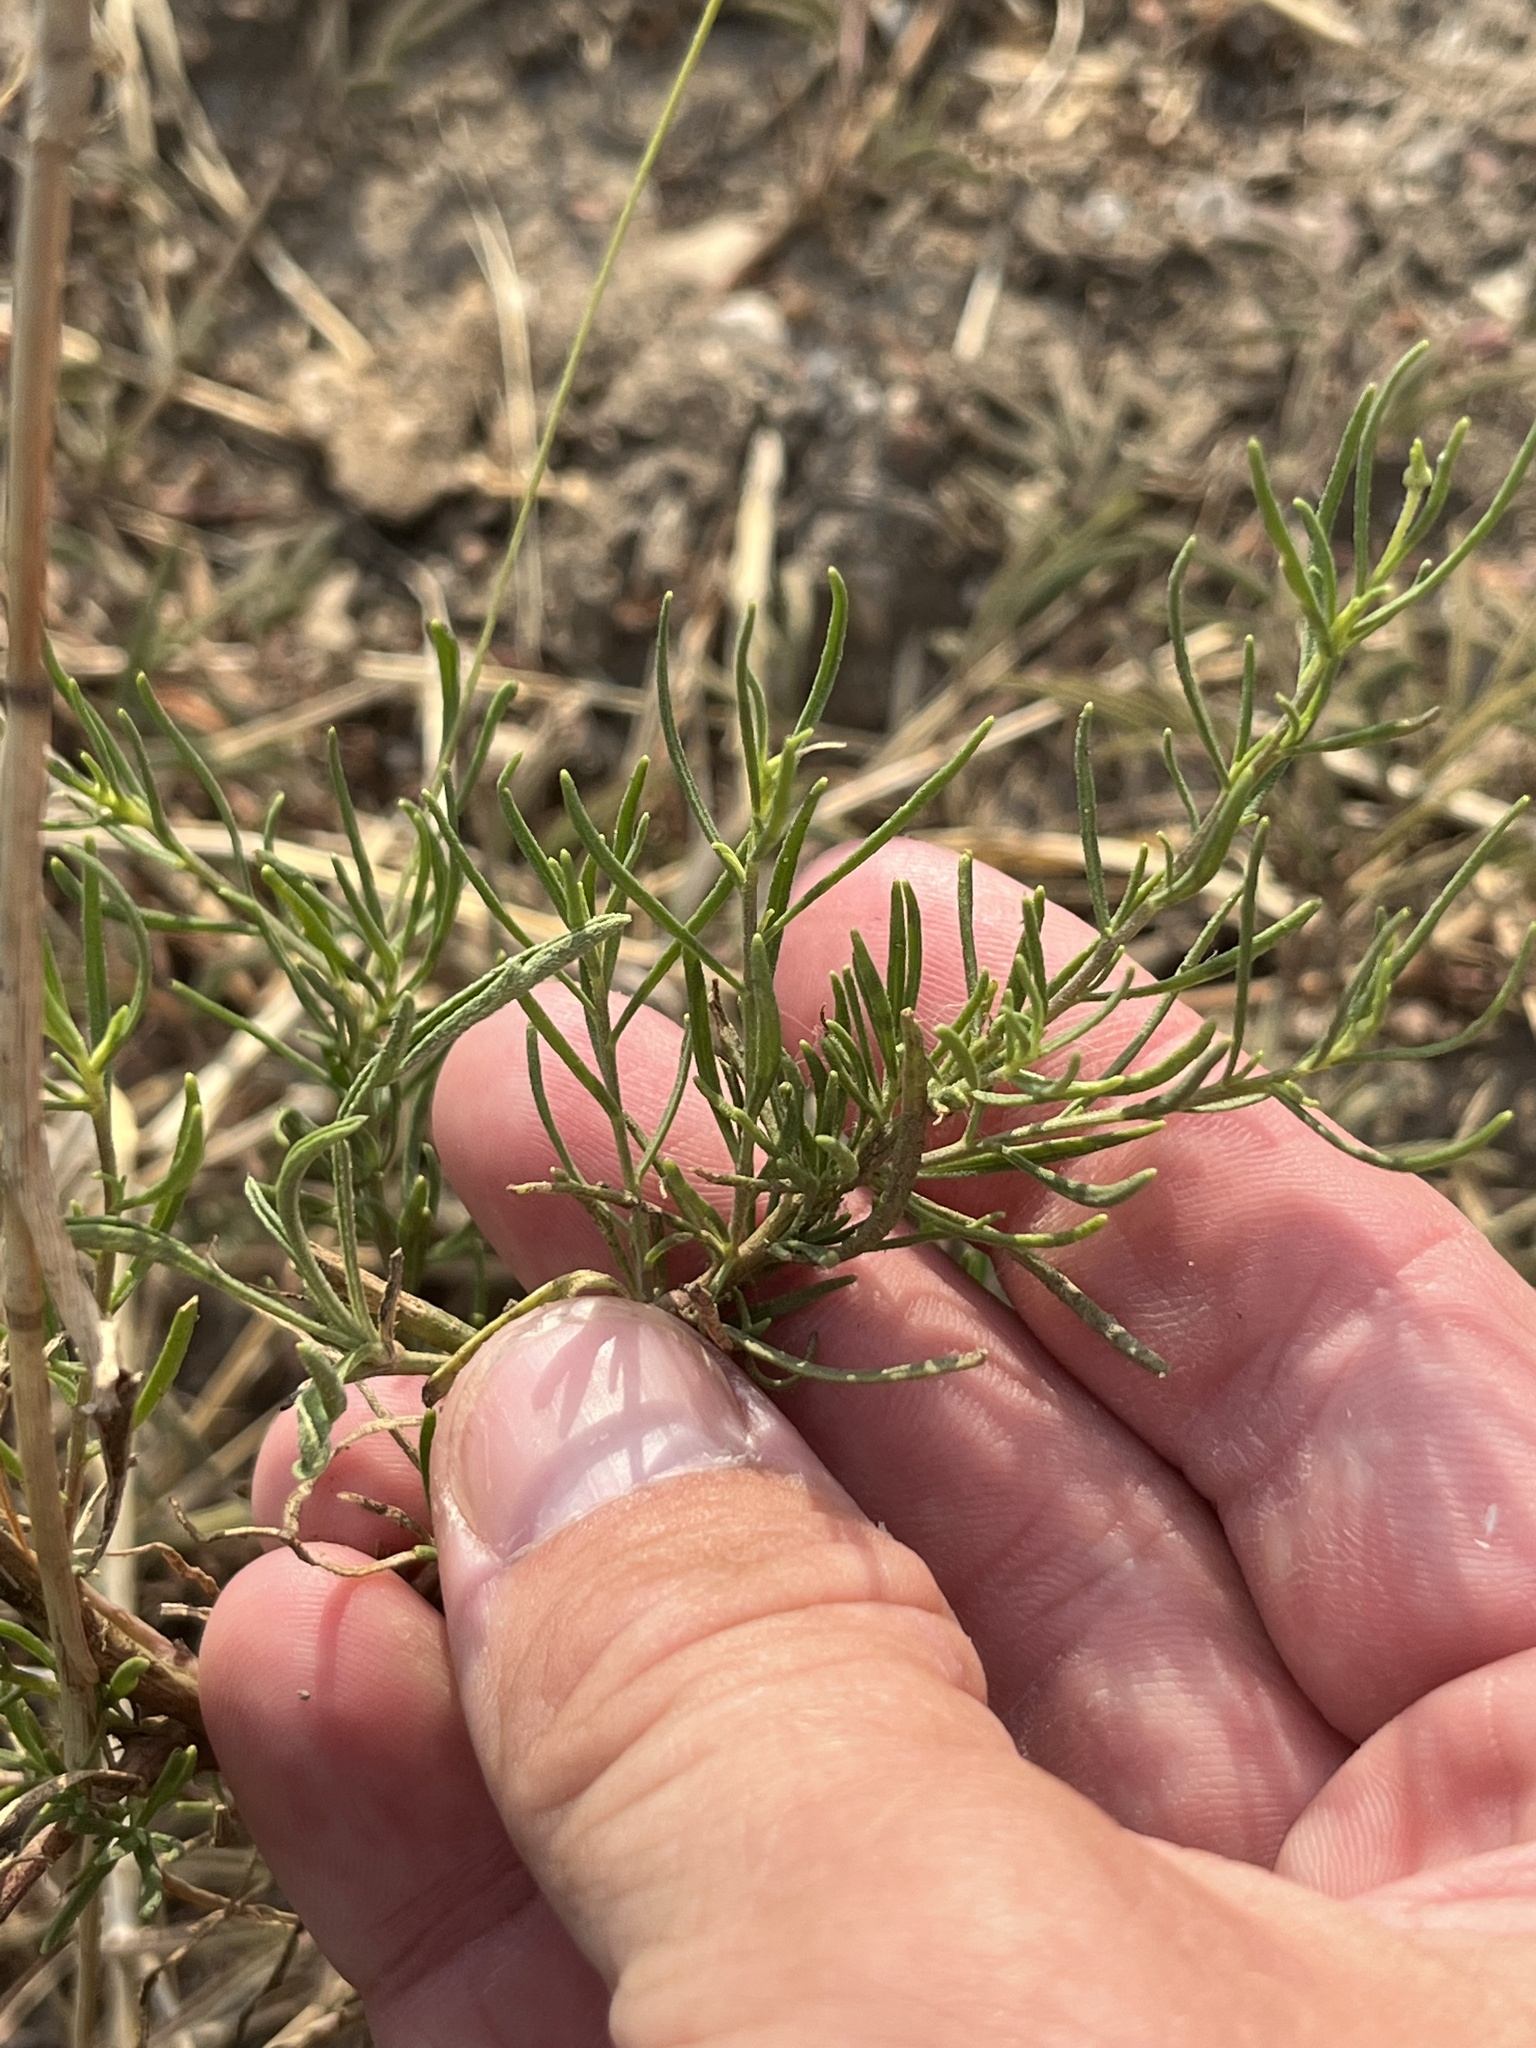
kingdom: Plantae
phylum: Tracheophyta
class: Magnoliopsida
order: Asterales
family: Asteraceae
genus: Helenium
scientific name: Helenium amarum
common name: Bitter sneezeweed
